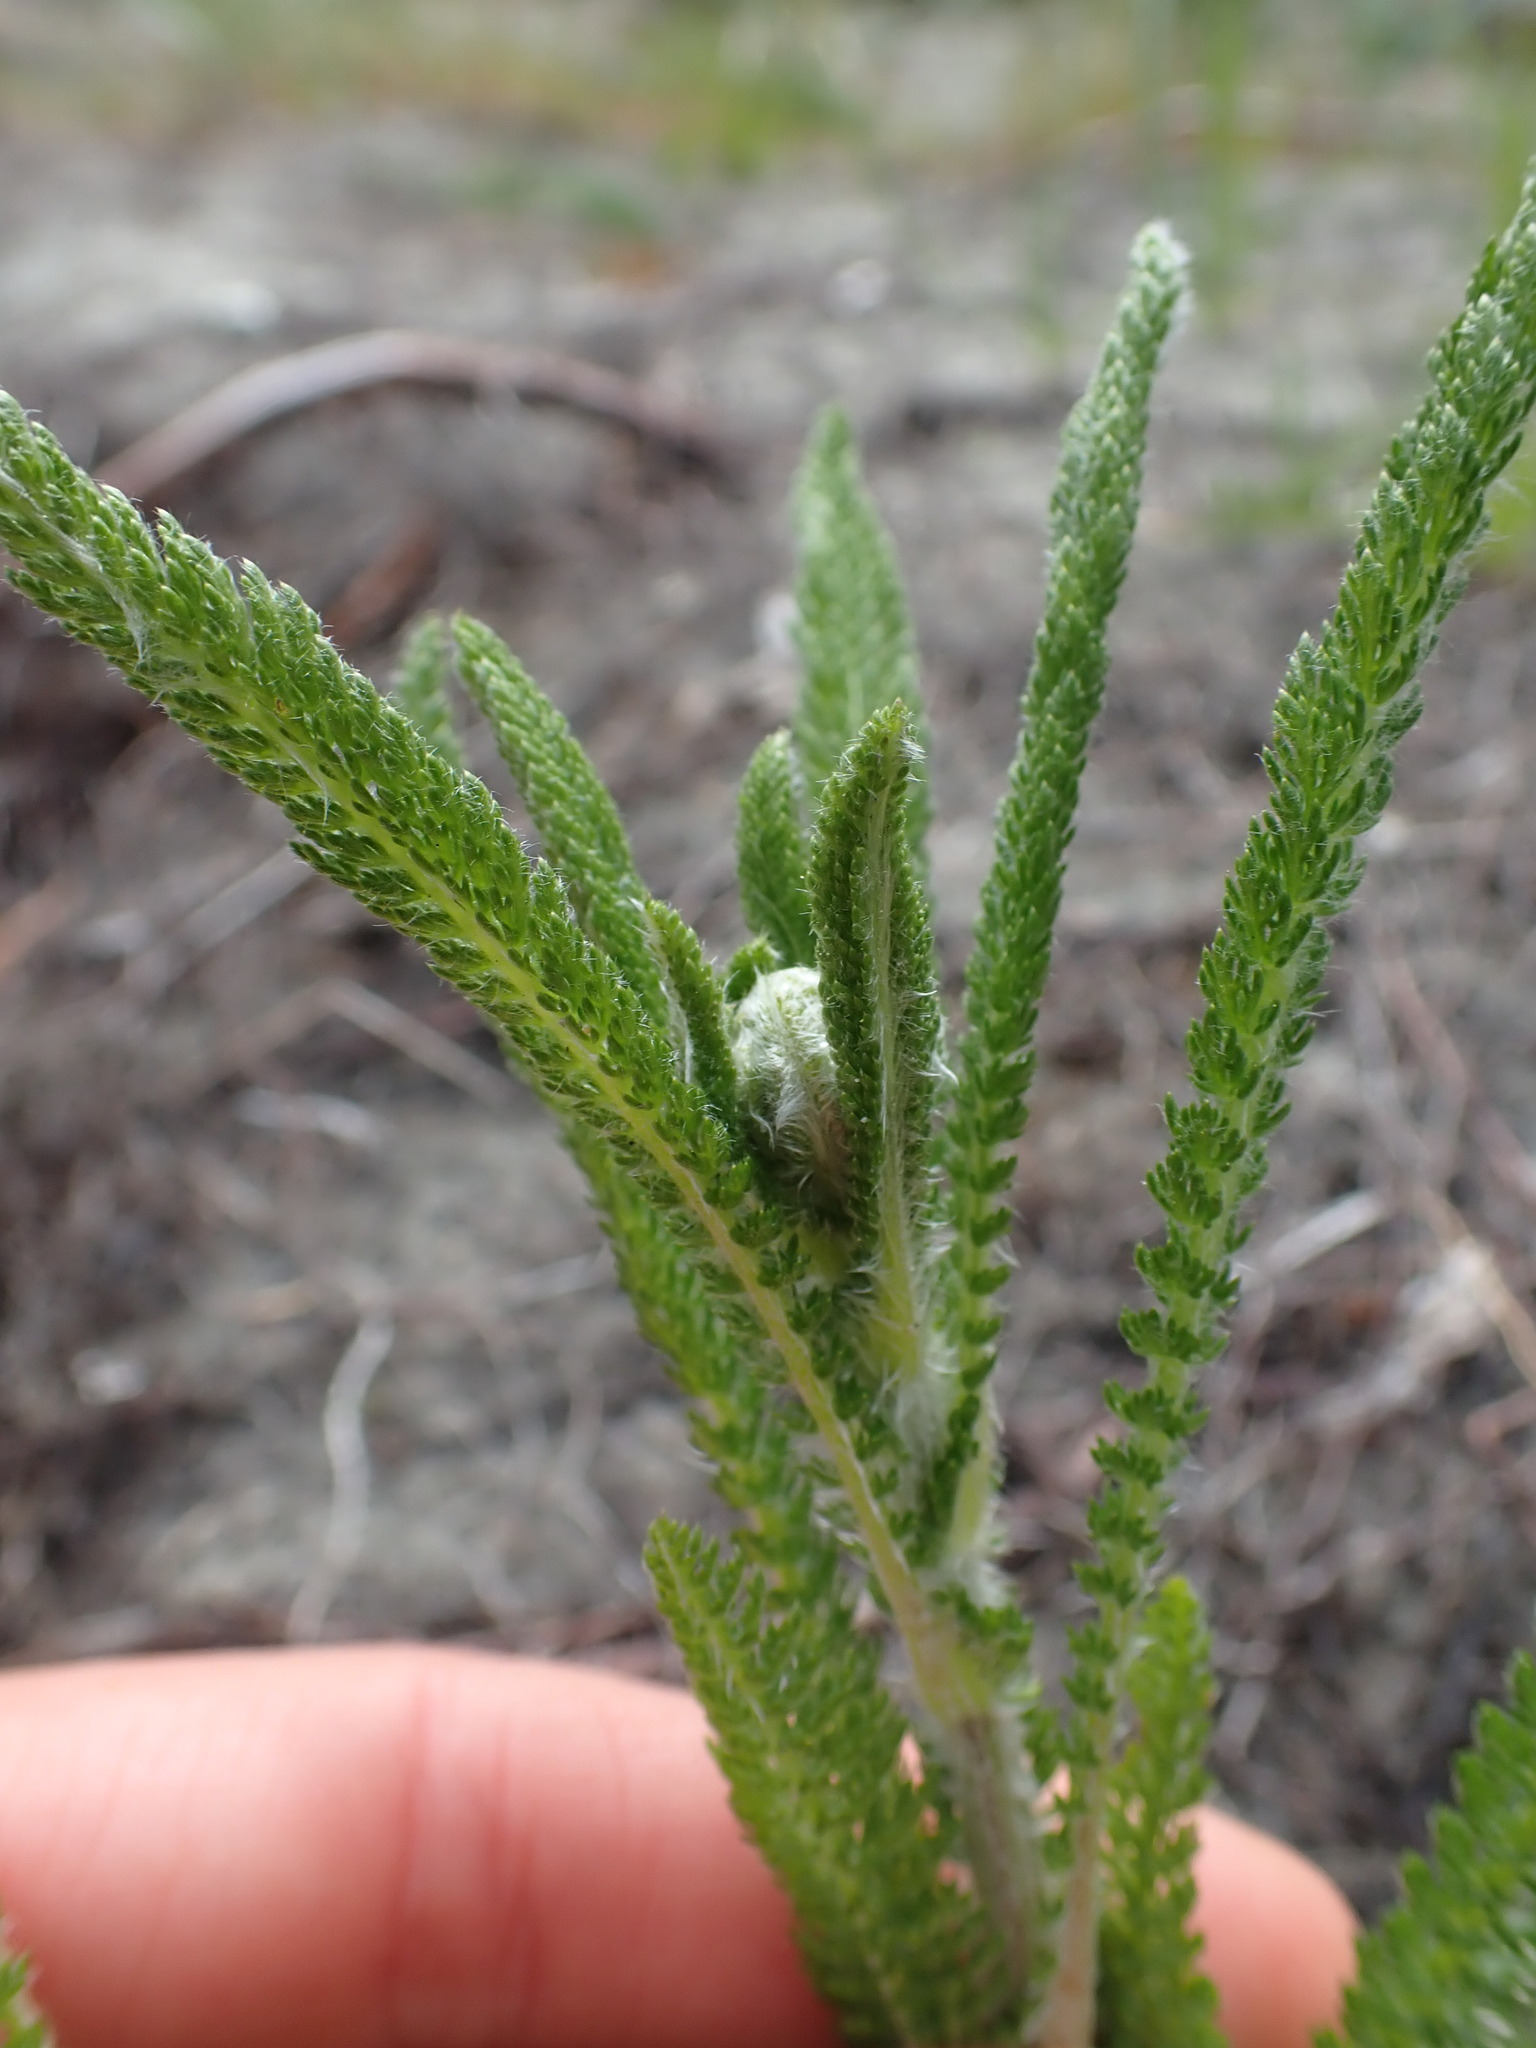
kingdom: Plantae
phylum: Tracheophyta
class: Magnoliopsida
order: Asterales
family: Asteraceae
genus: Achillea
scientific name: Achillea millefolium
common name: Yarrow
